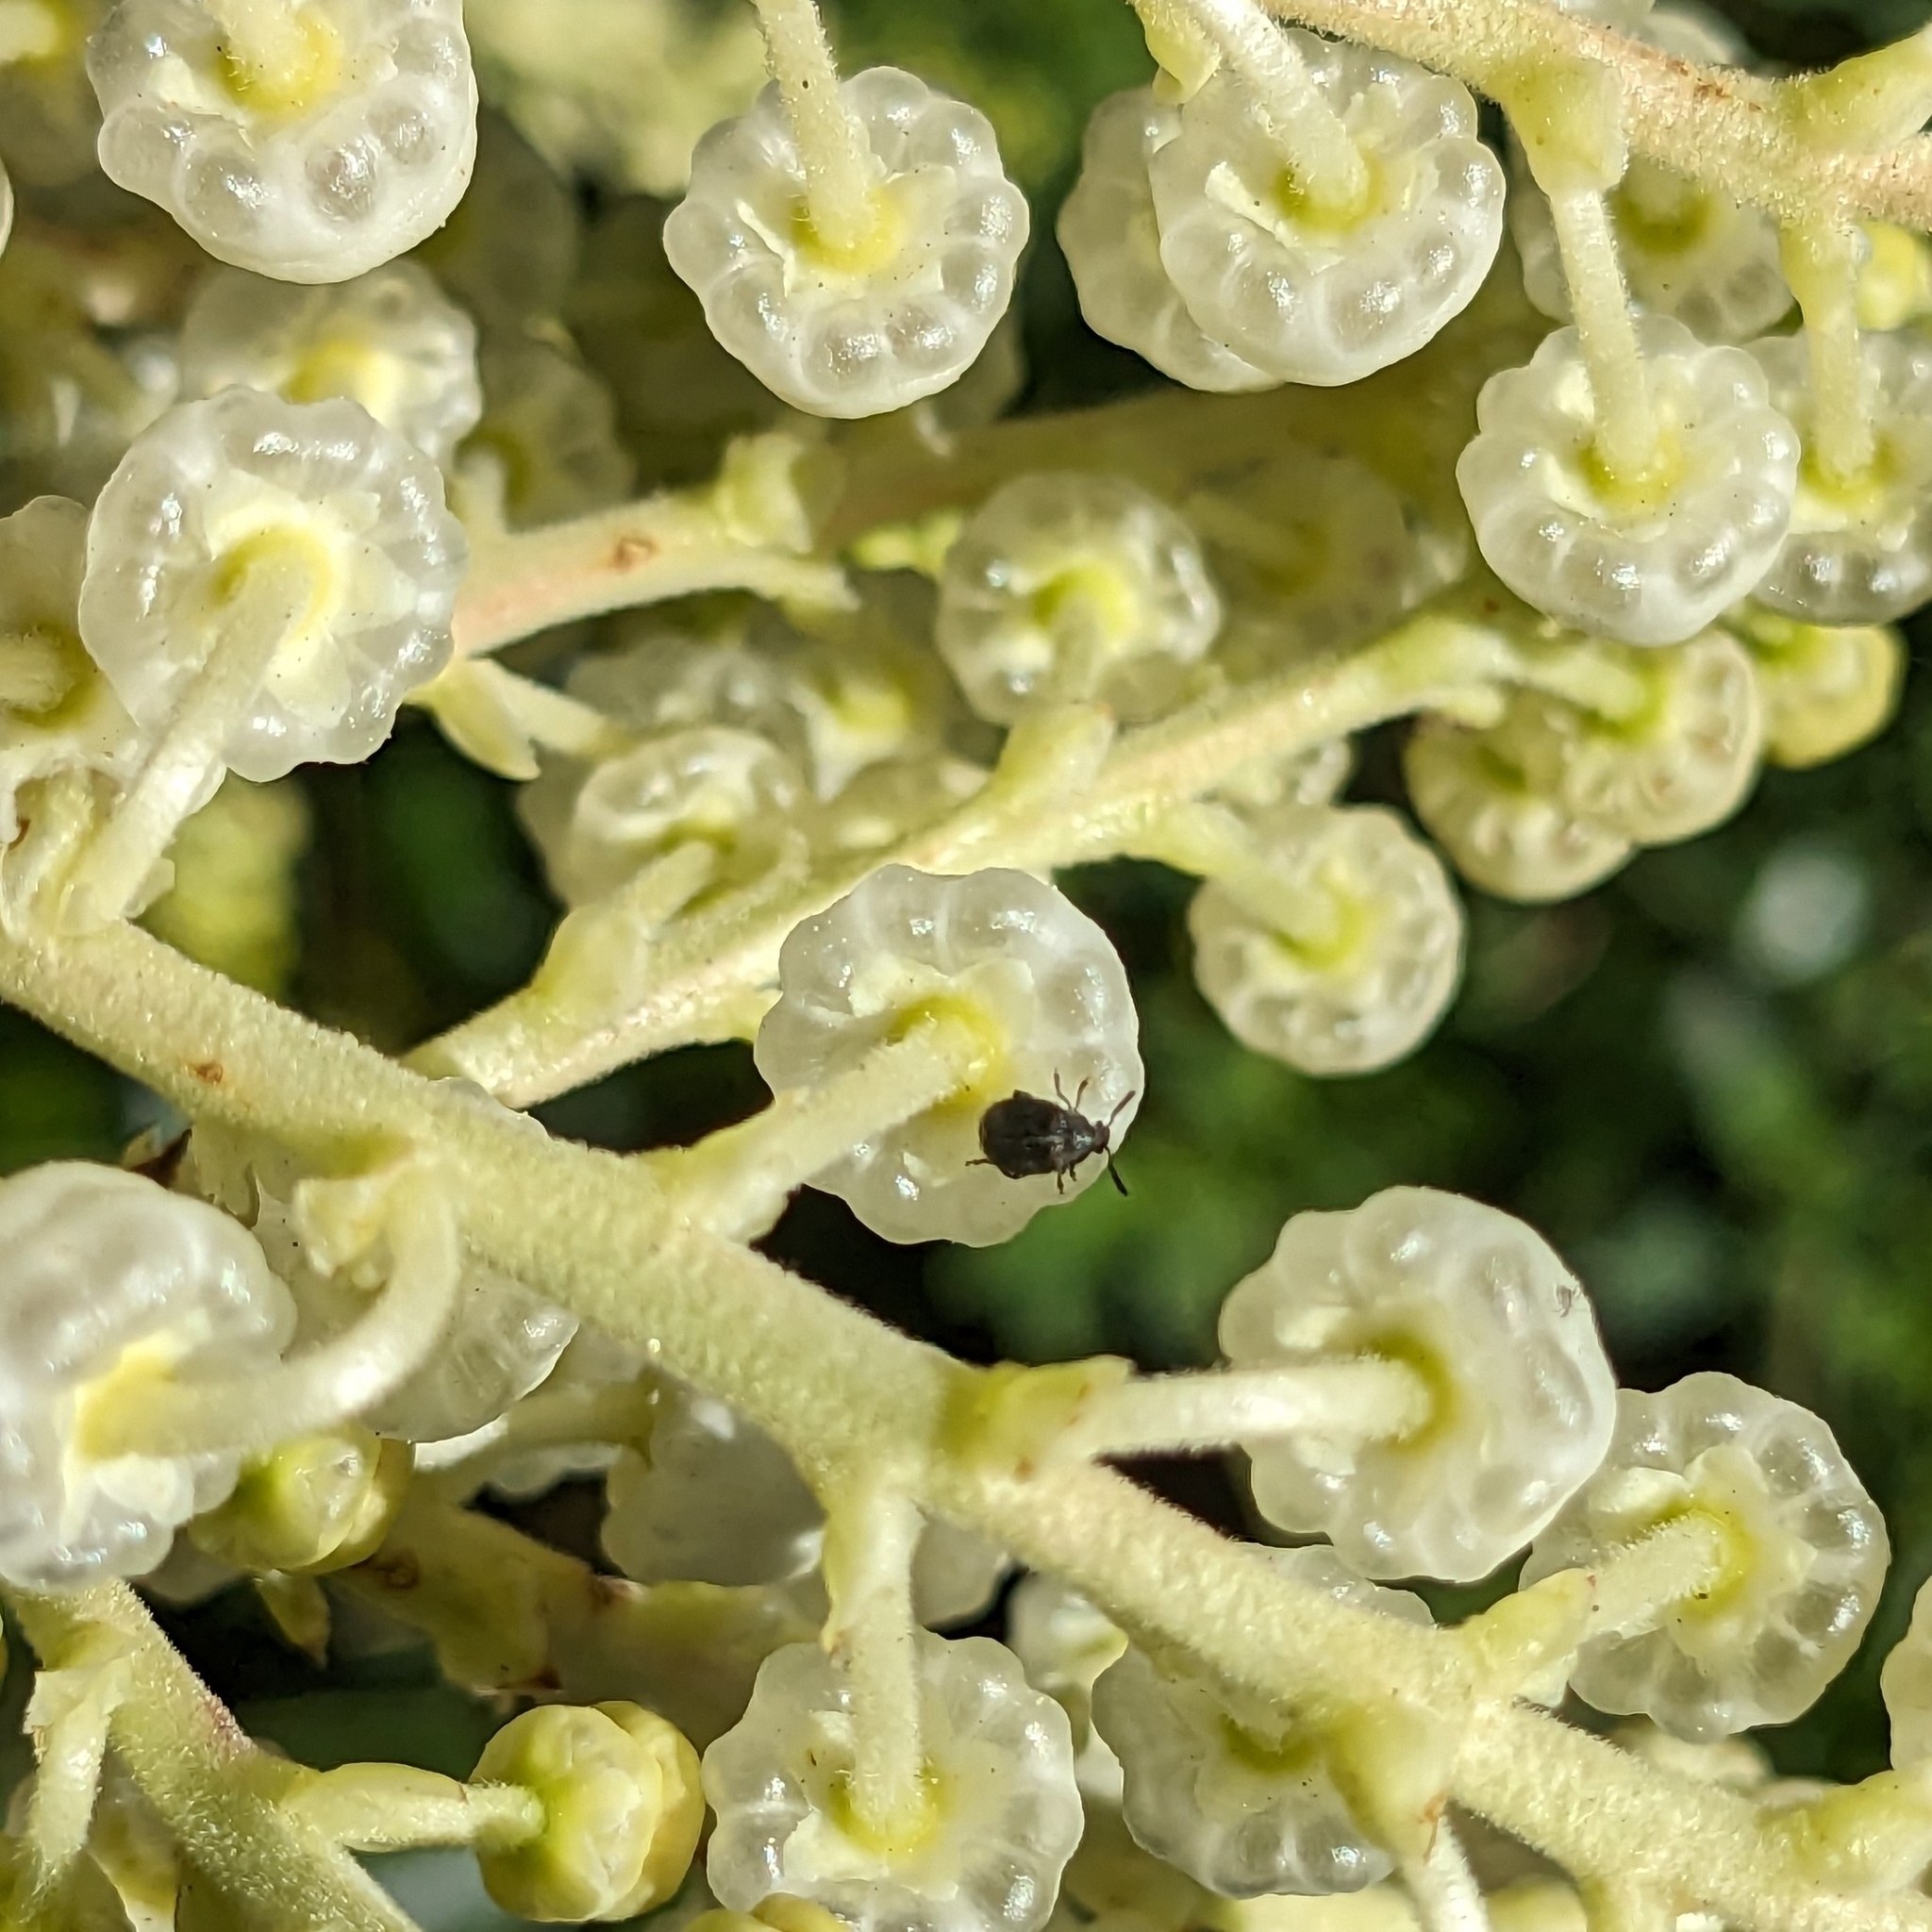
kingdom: Animalia
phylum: Arthropoda
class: Insecta
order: Coleoptera
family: Chrysomelidae
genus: Bruchidius
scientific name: Bruchidius villosus
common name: Scotch broom bruchid
